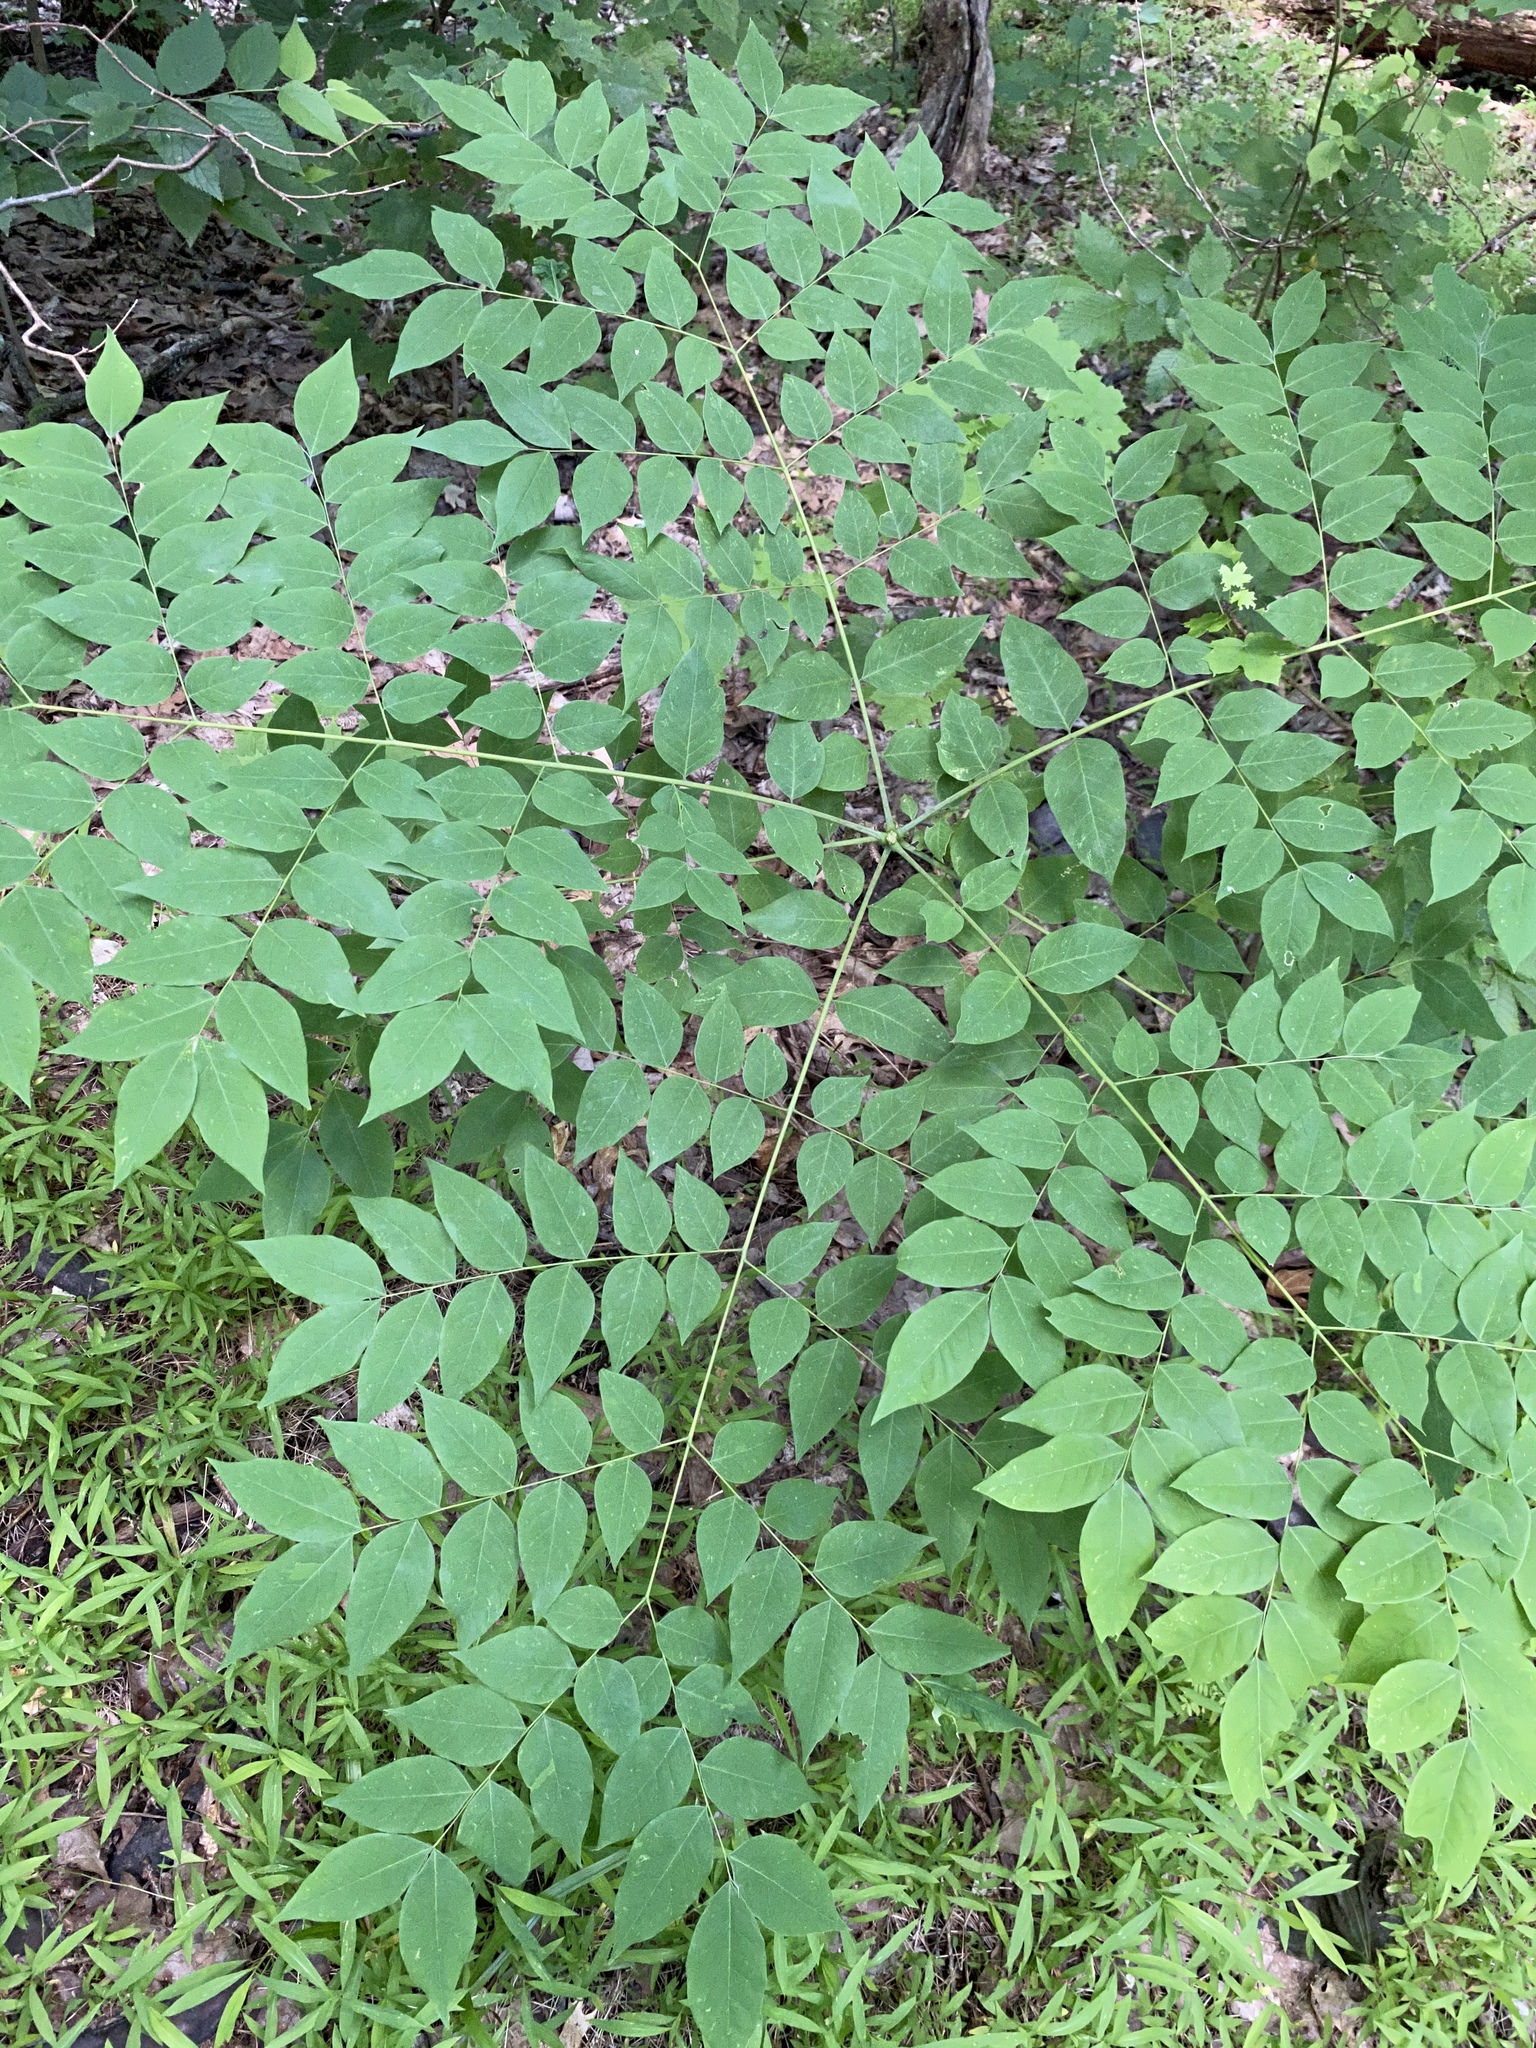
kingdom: Plantae
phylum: Tracheophyta
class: Magnoliopsida
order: Fabales
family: Fabaceae
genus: Gymnocladus
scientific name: Gymnocladus dioicus
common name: Kentucky coffee-tree
